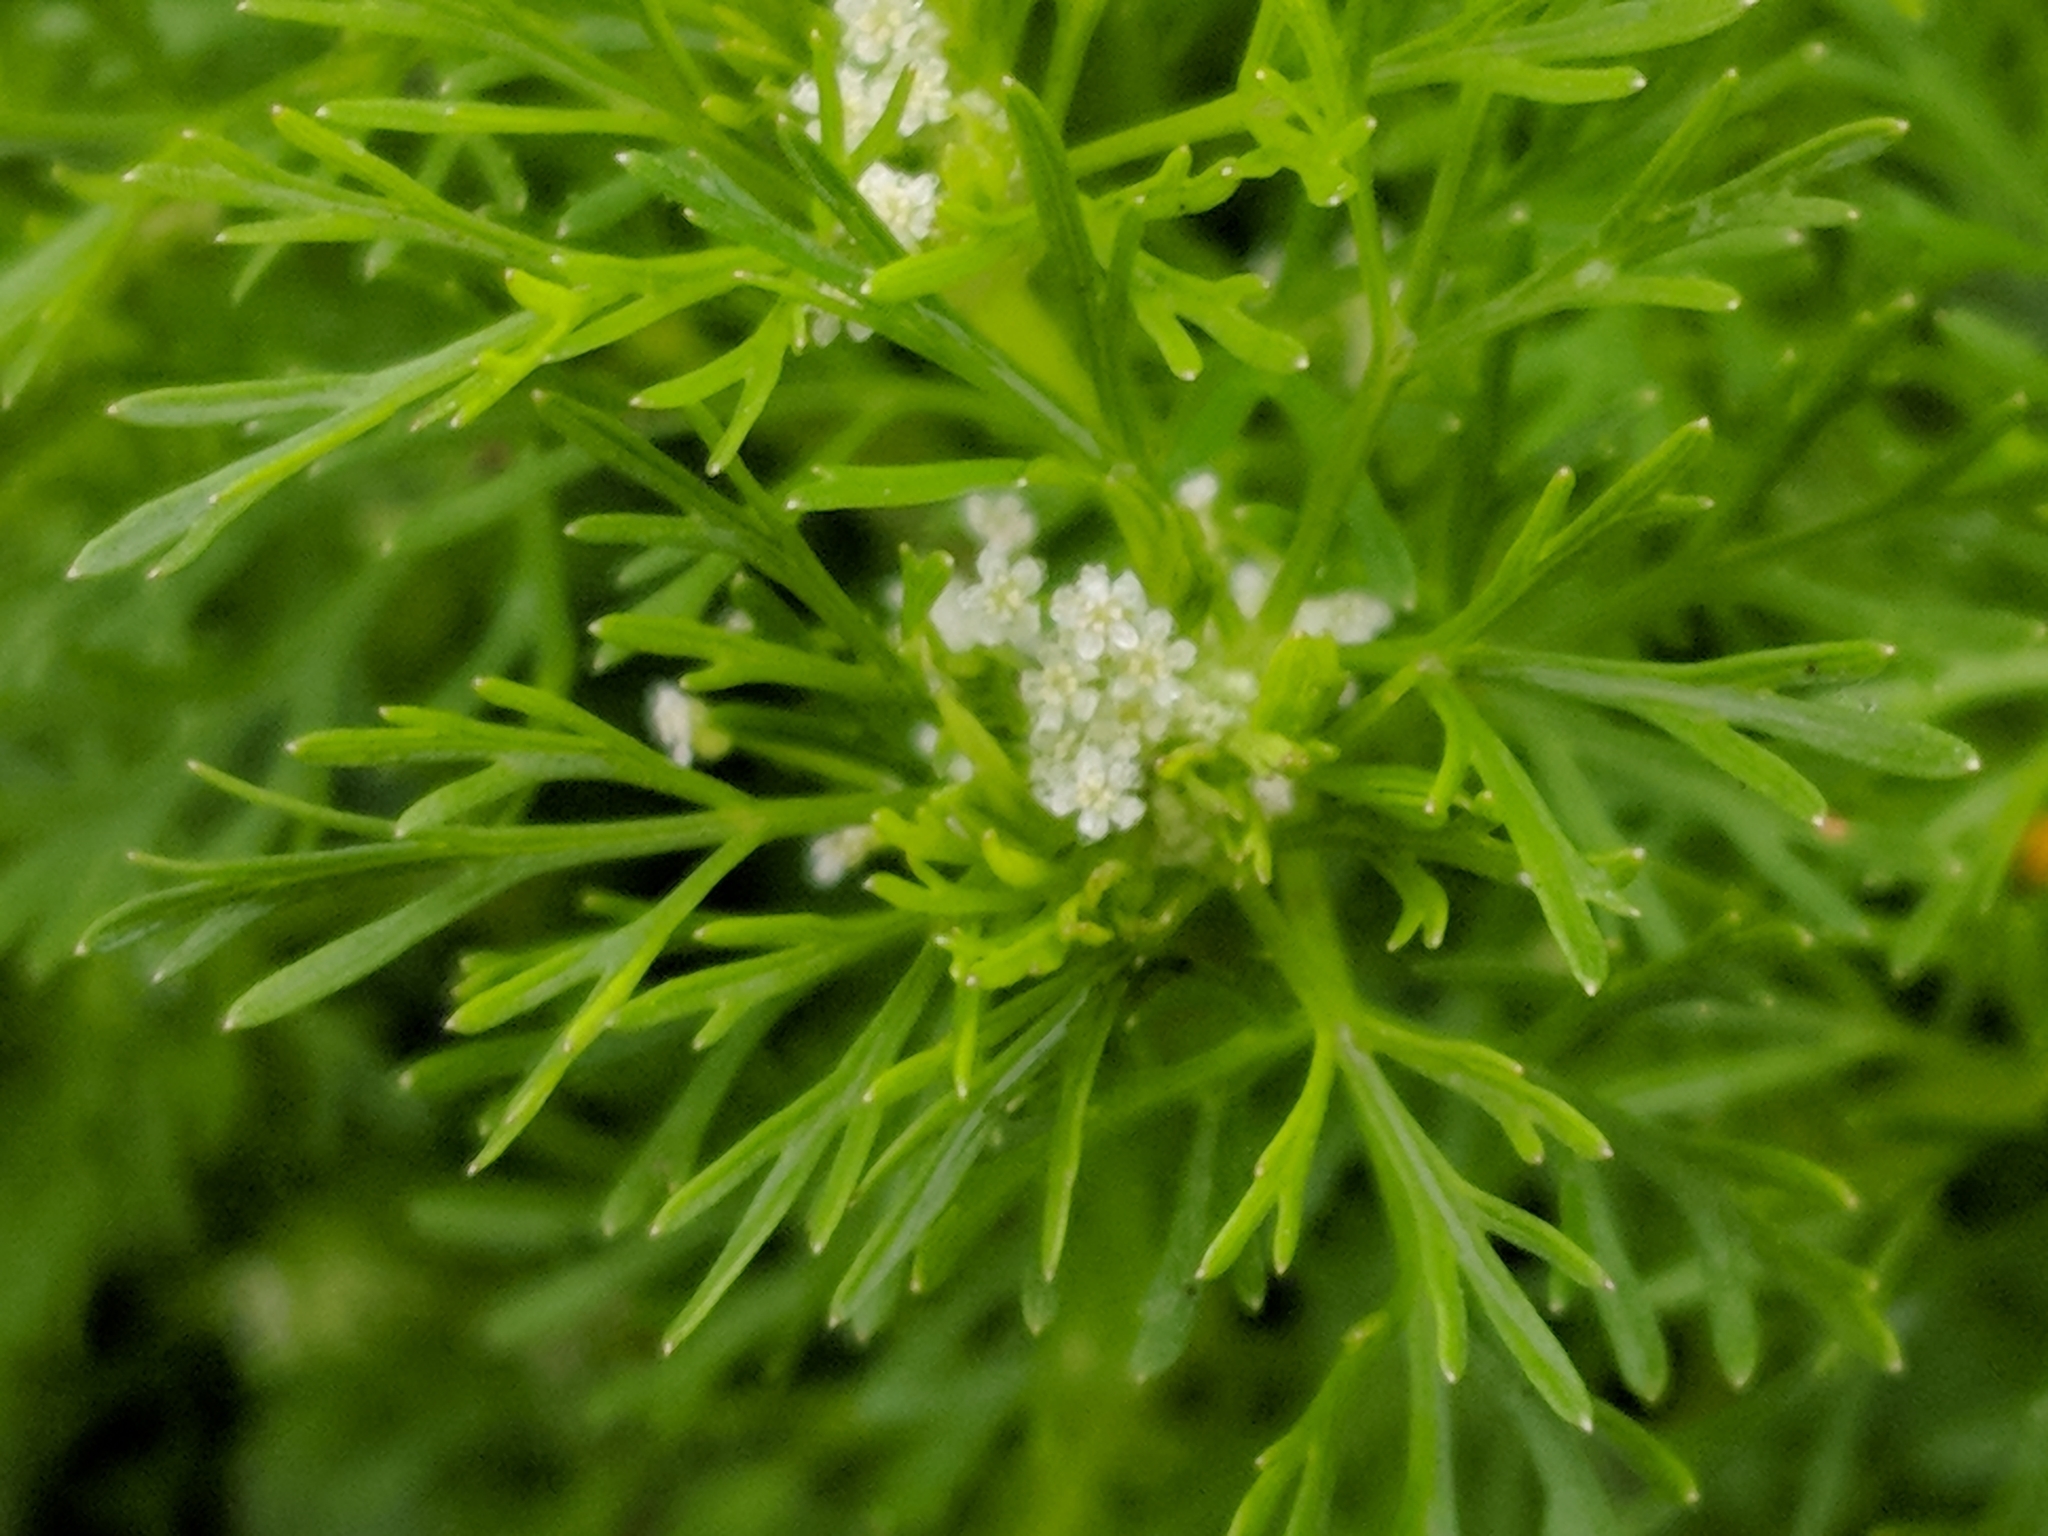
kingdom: Plantae
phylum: Tracheophyta
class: Magnoliopsida
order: Apiales
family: Apiaceae
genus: Cyclospermum
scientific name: Cyclospermum leptophyllum
